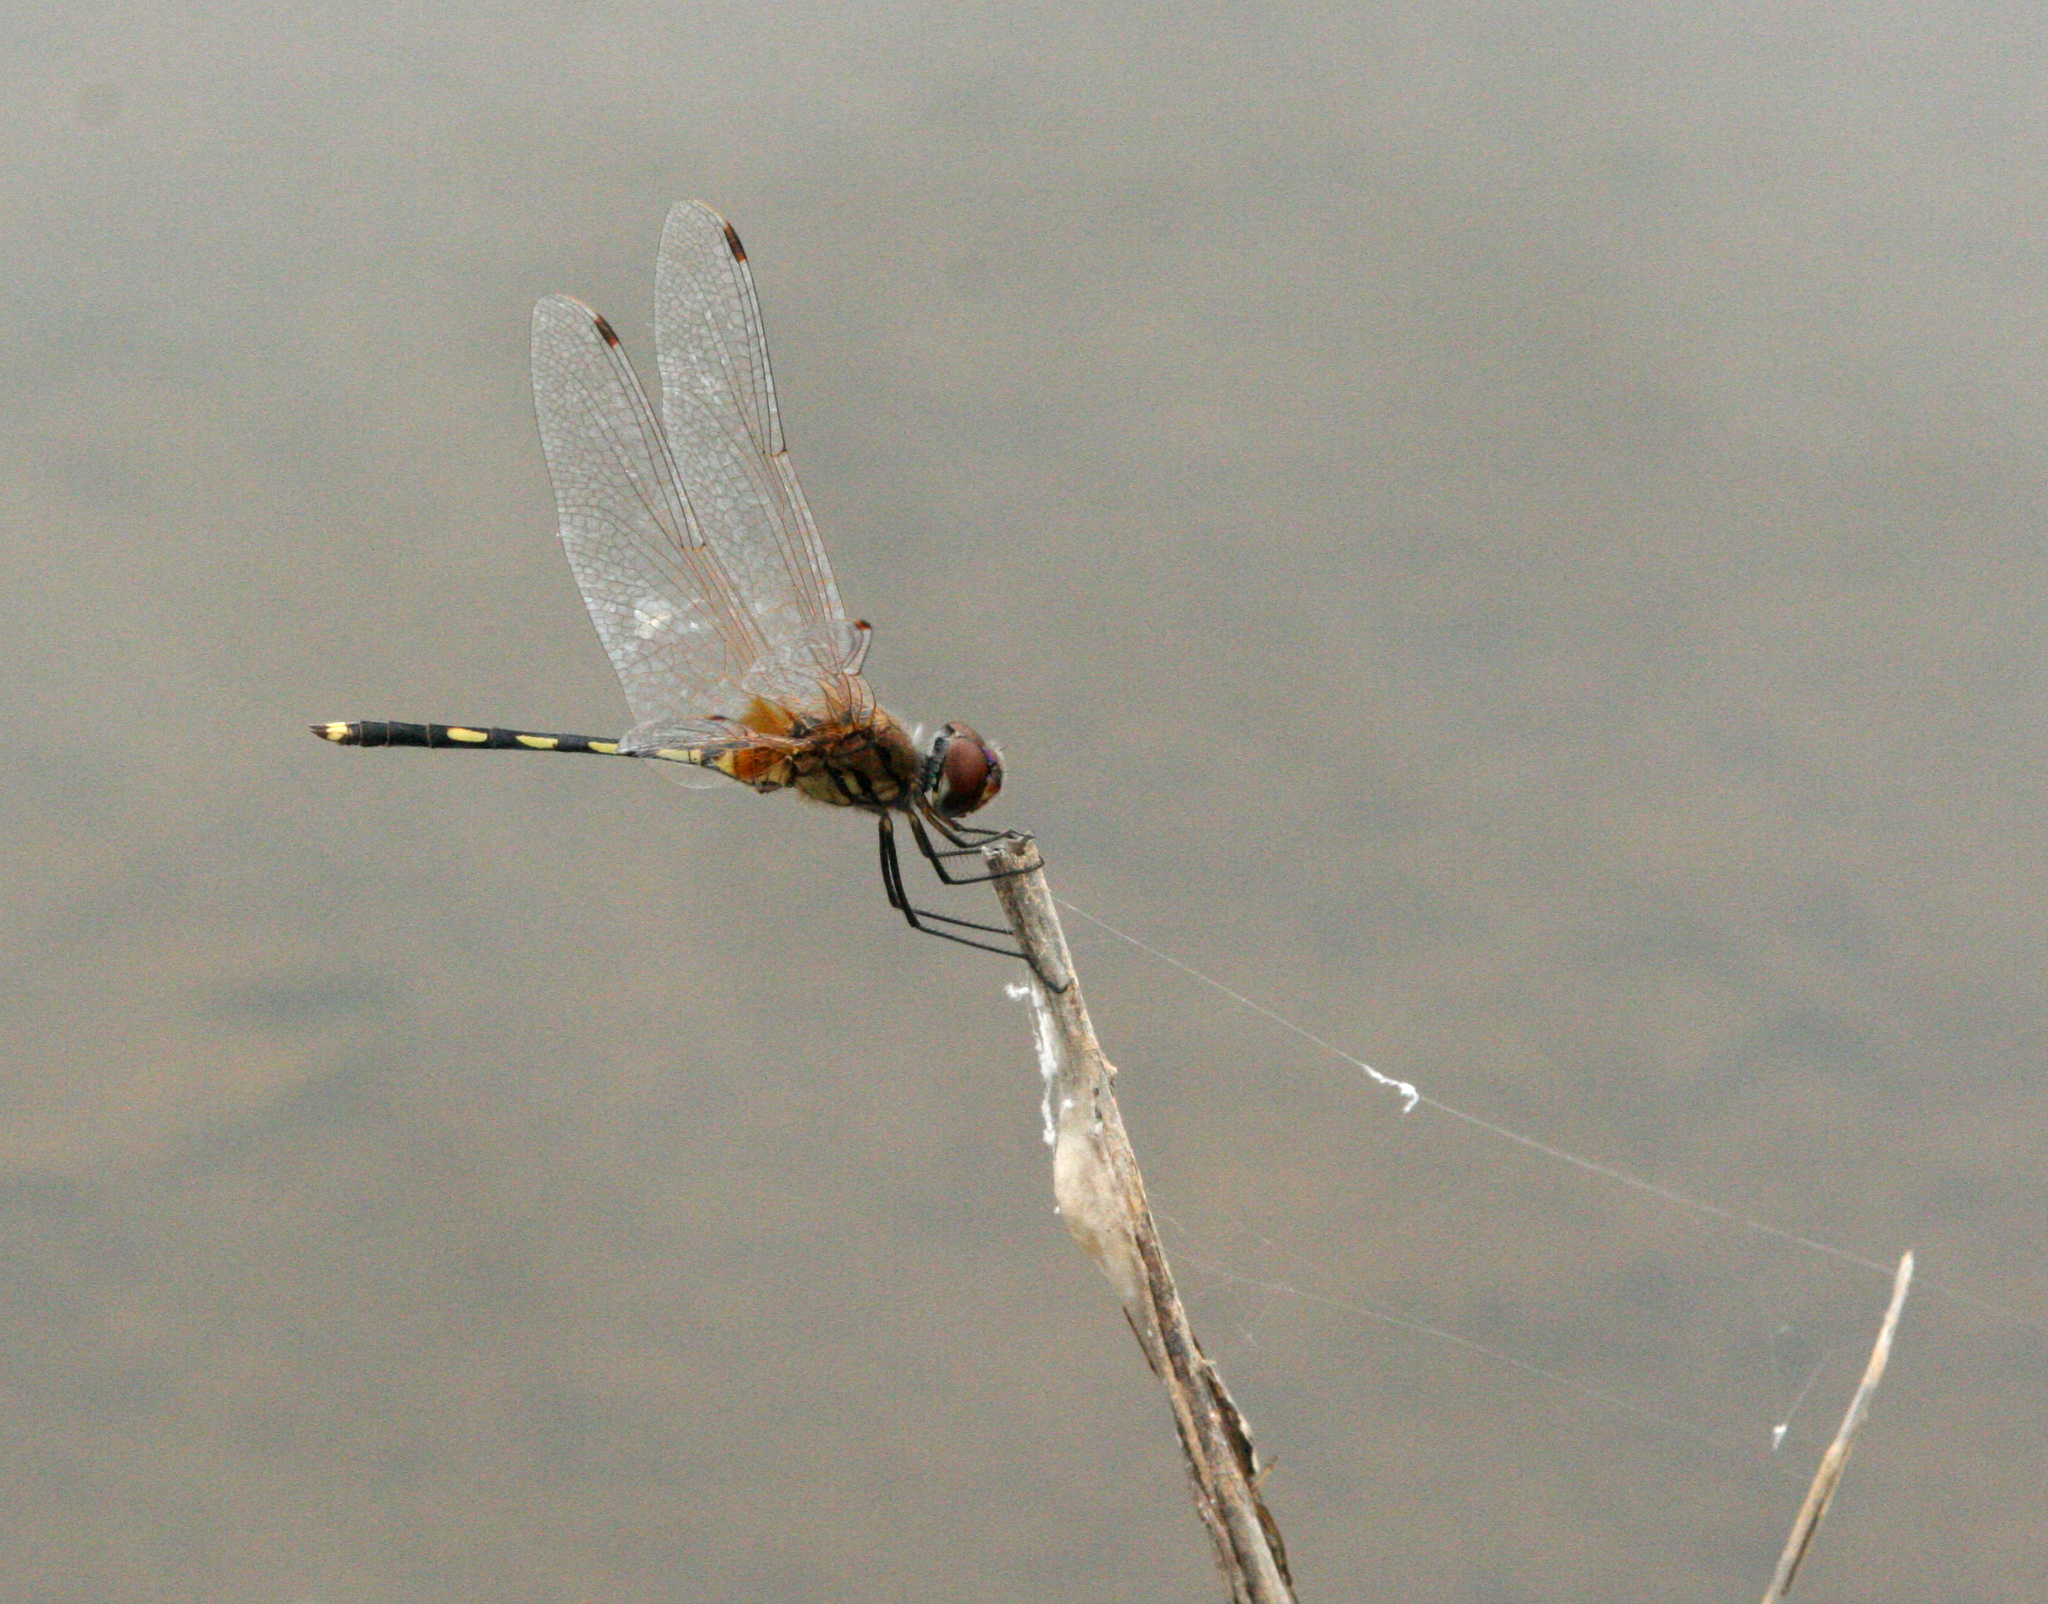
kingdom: Animalia
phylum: Arthropoda
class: Insecta
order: Odonata
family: Libellulidae
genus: Trithemis
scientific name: Trithemis pallidinervis
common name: Dancing dropwing
